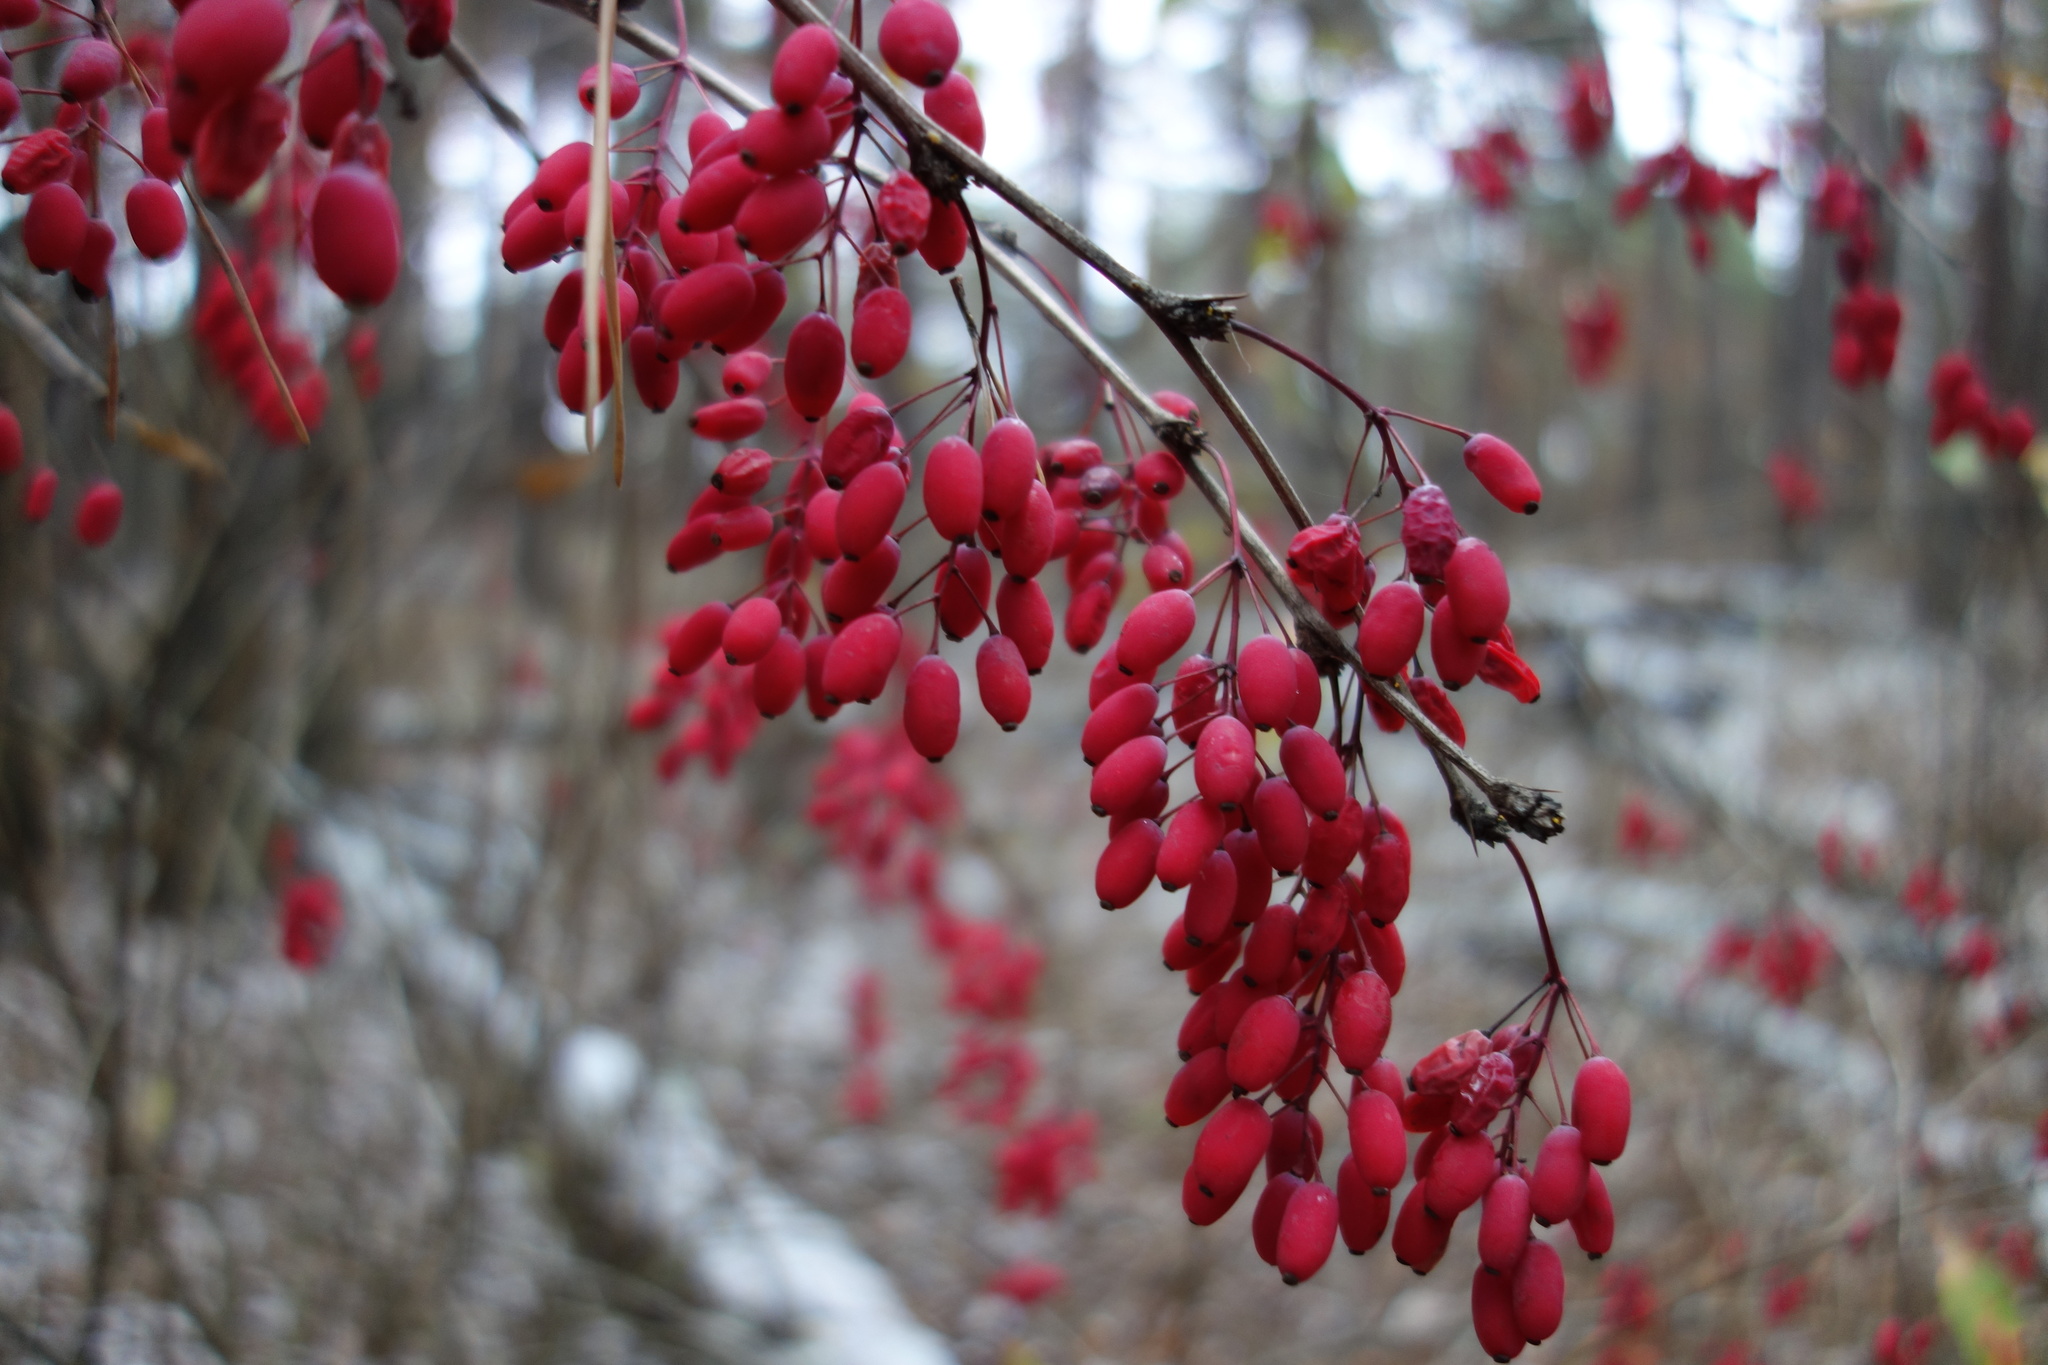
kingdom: Plantae
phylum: Tracheophyta
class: Magnoliopsida
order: Ranunculales
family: Berberidaceae
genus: Berberis
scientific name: Berberis vulgaris
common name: Barberry
